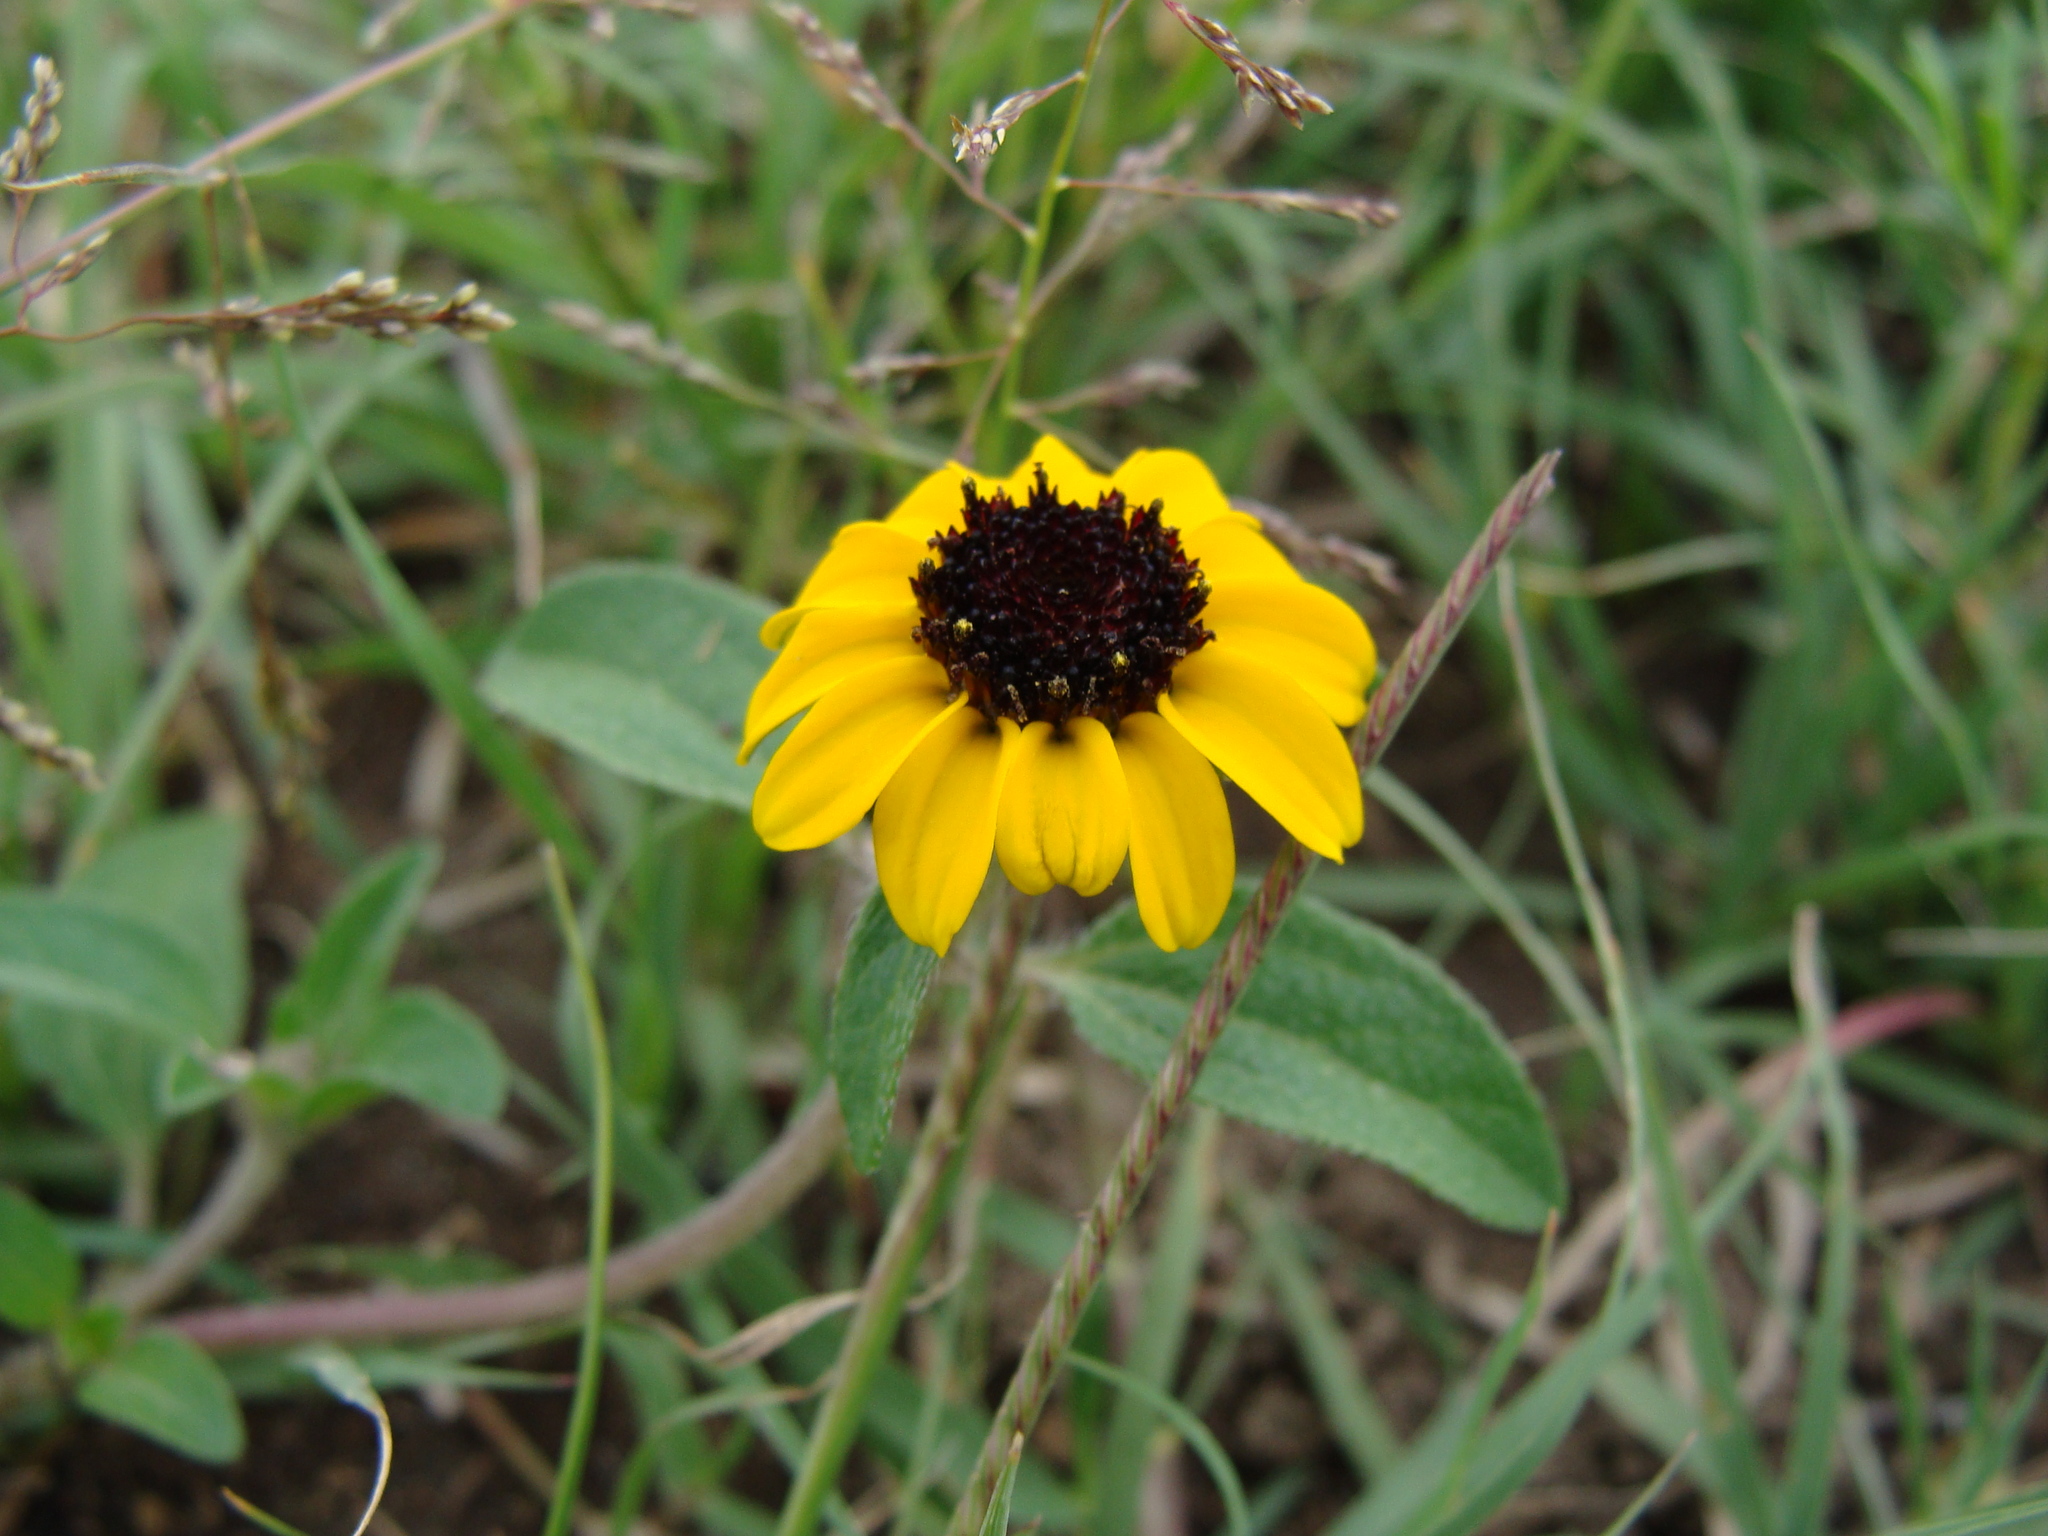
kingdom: Plantae
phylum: Tracheophyta
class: Magnoliopsida
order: Asterales
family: Asteraceae
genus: Sanvitalia
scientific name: Sanvitalia procumbens
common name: Mexican creeping zinnia
